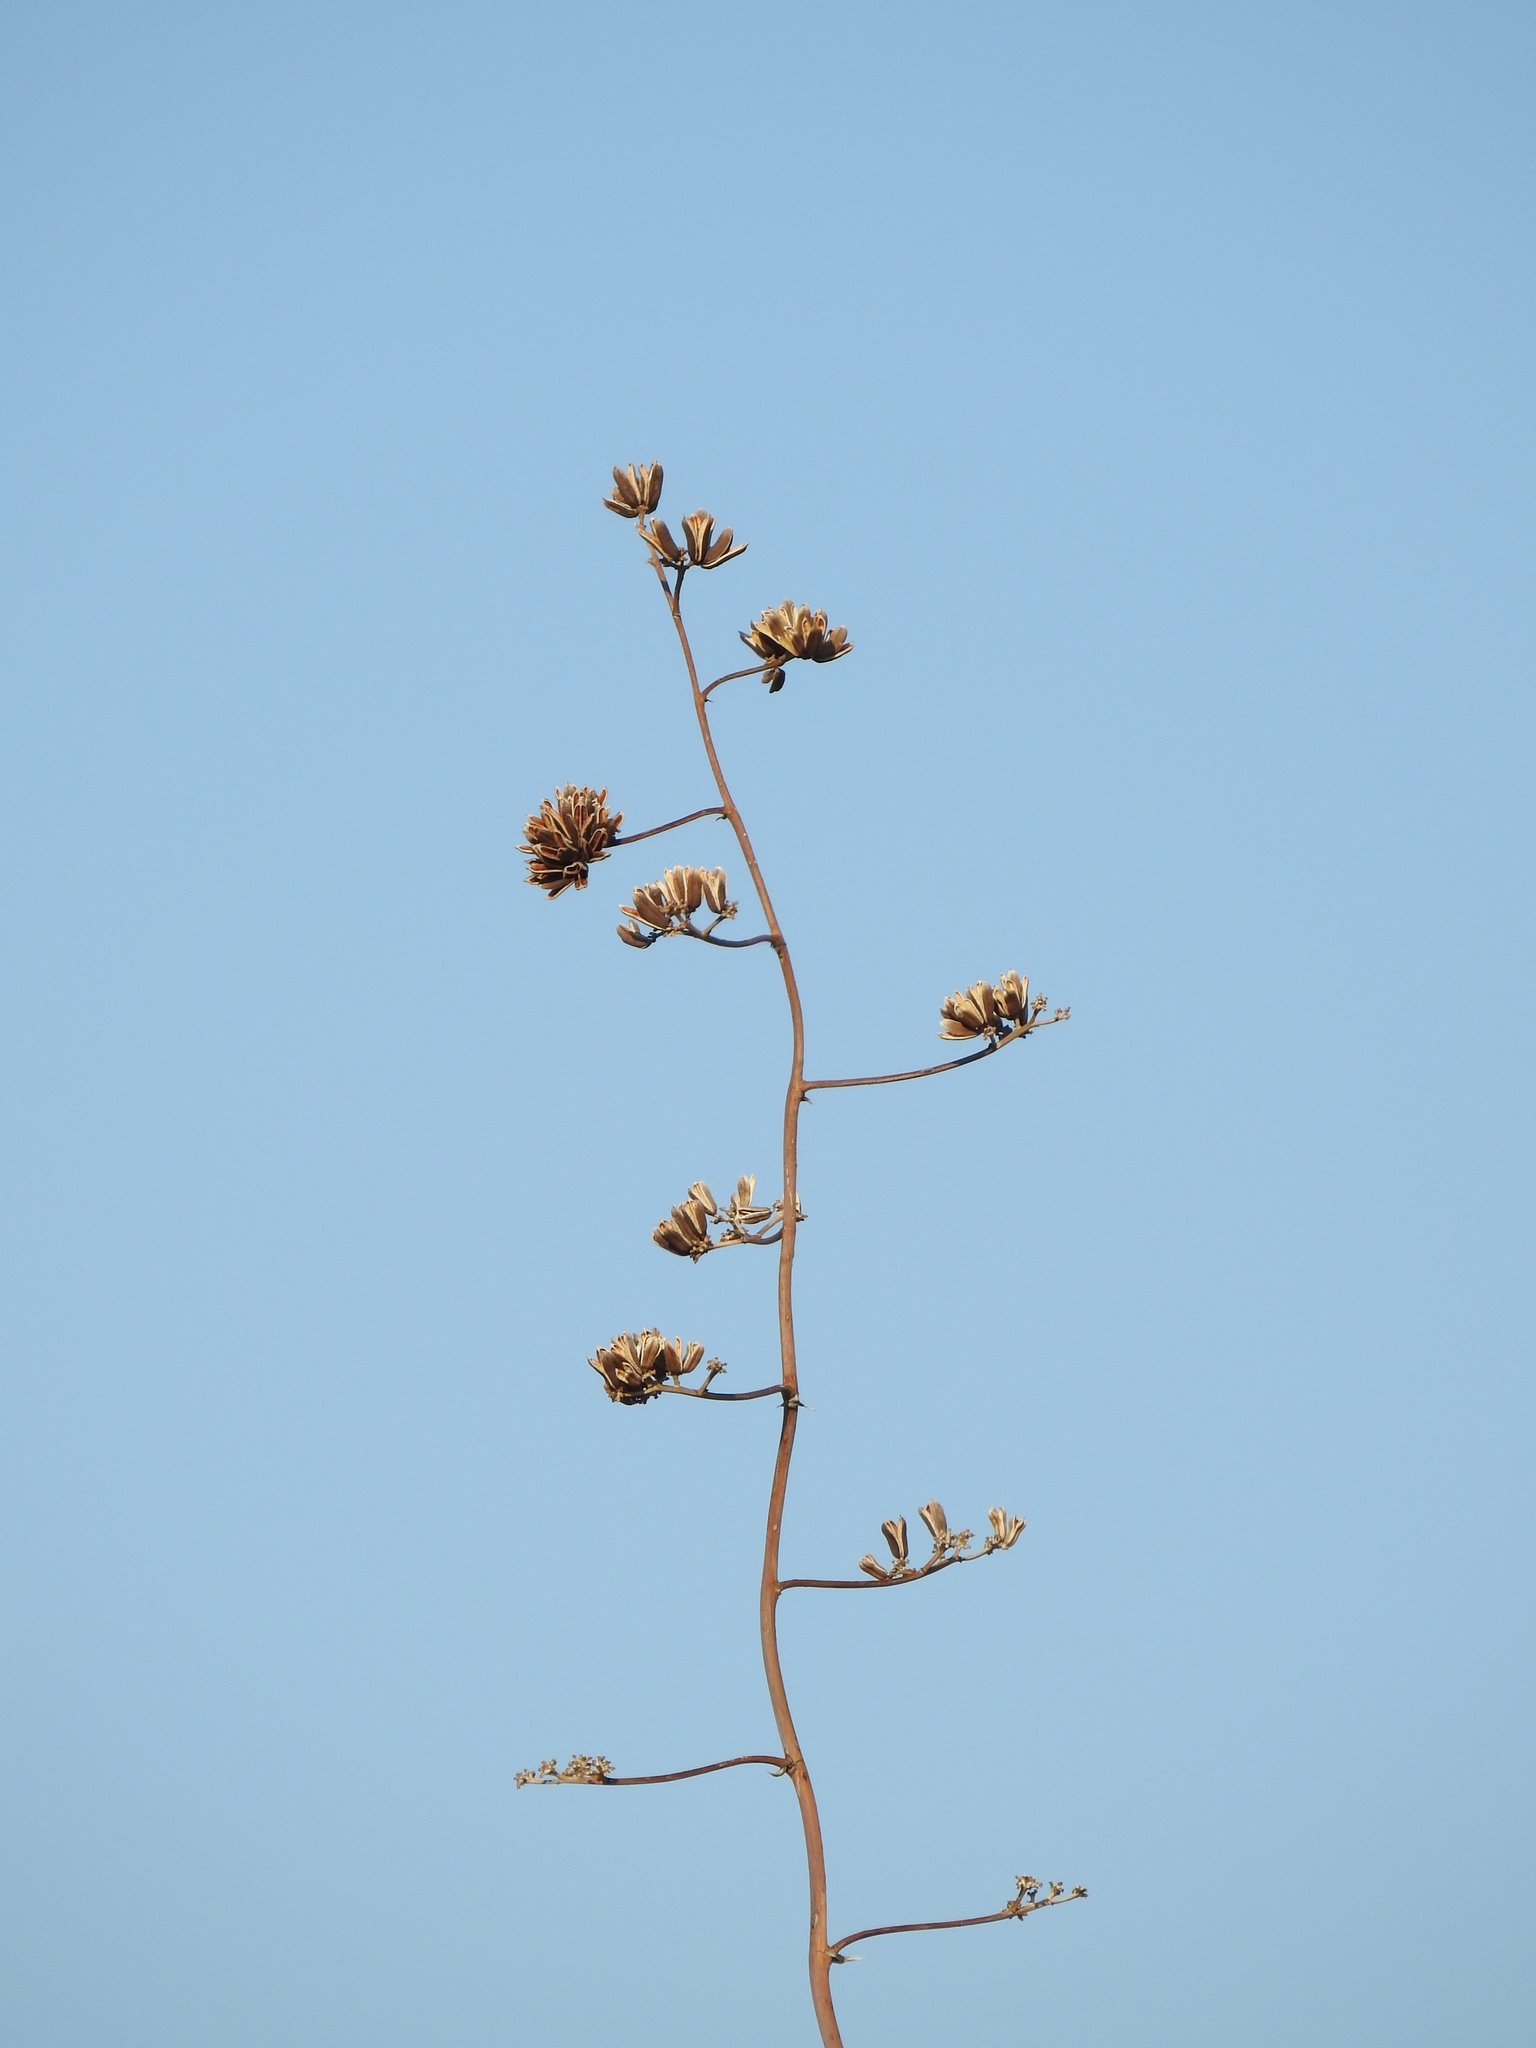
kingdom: Plantae
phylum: Tracheophyta
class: Liliopsida
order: Asparagales
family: Asparagaceae
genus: Agave
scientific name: Agave palmeri
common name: Palmer agave
